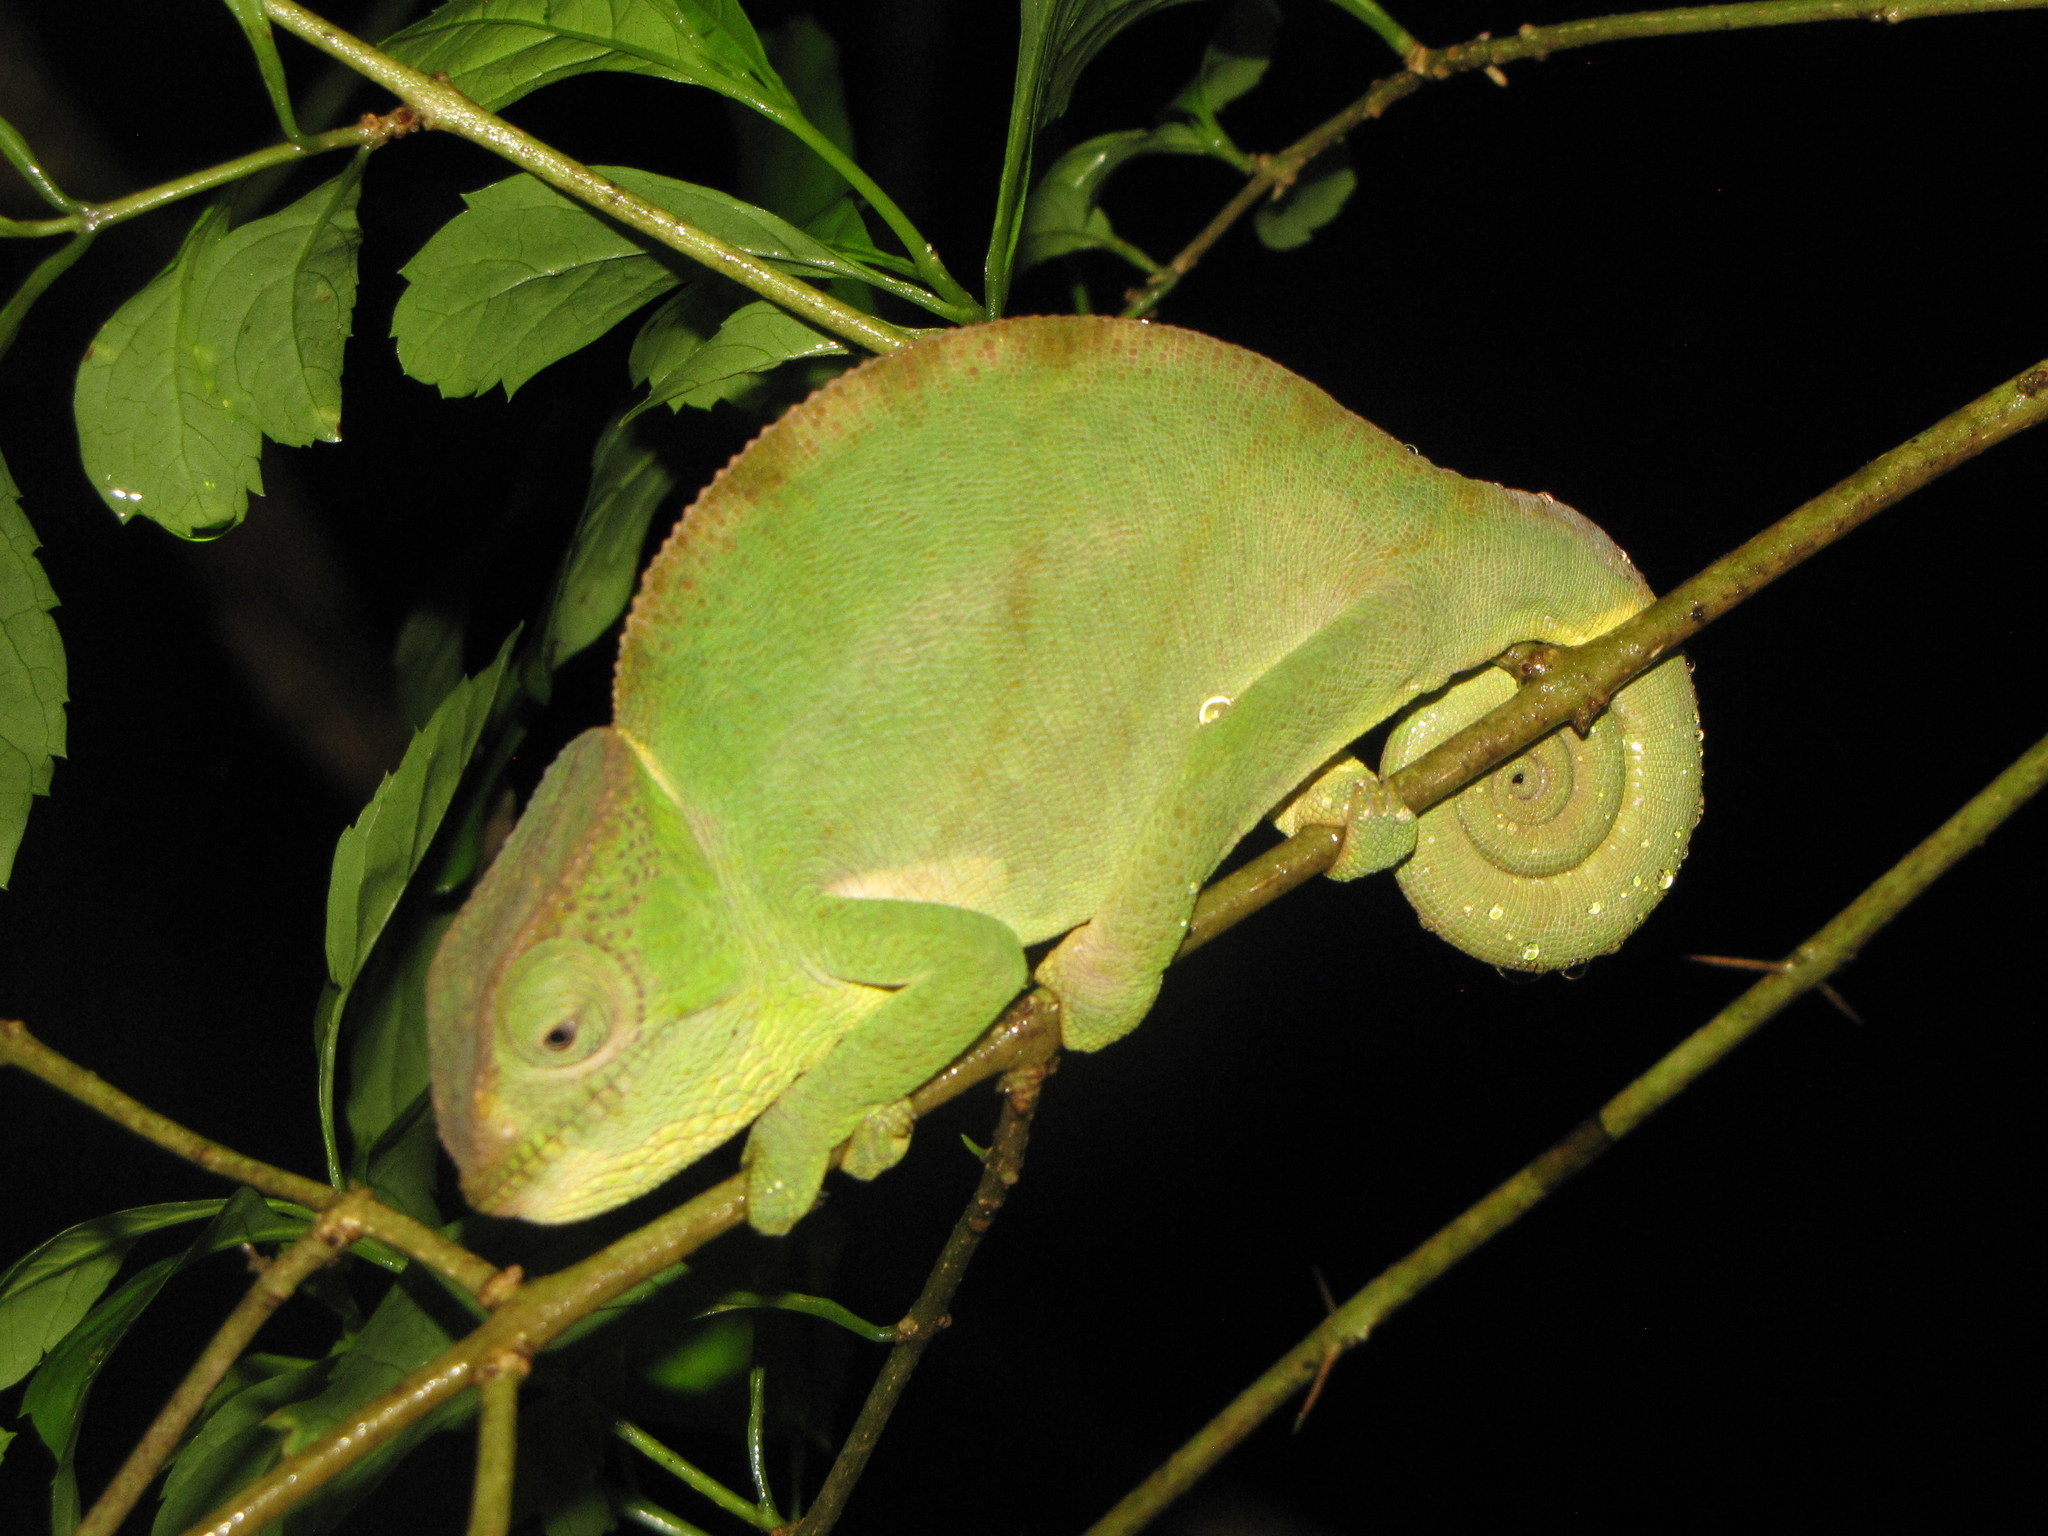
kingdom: Animalia
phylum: Chordata
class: Squamata
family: Chamaeleonidae
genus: Calumma
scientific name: Calumma ambreense
